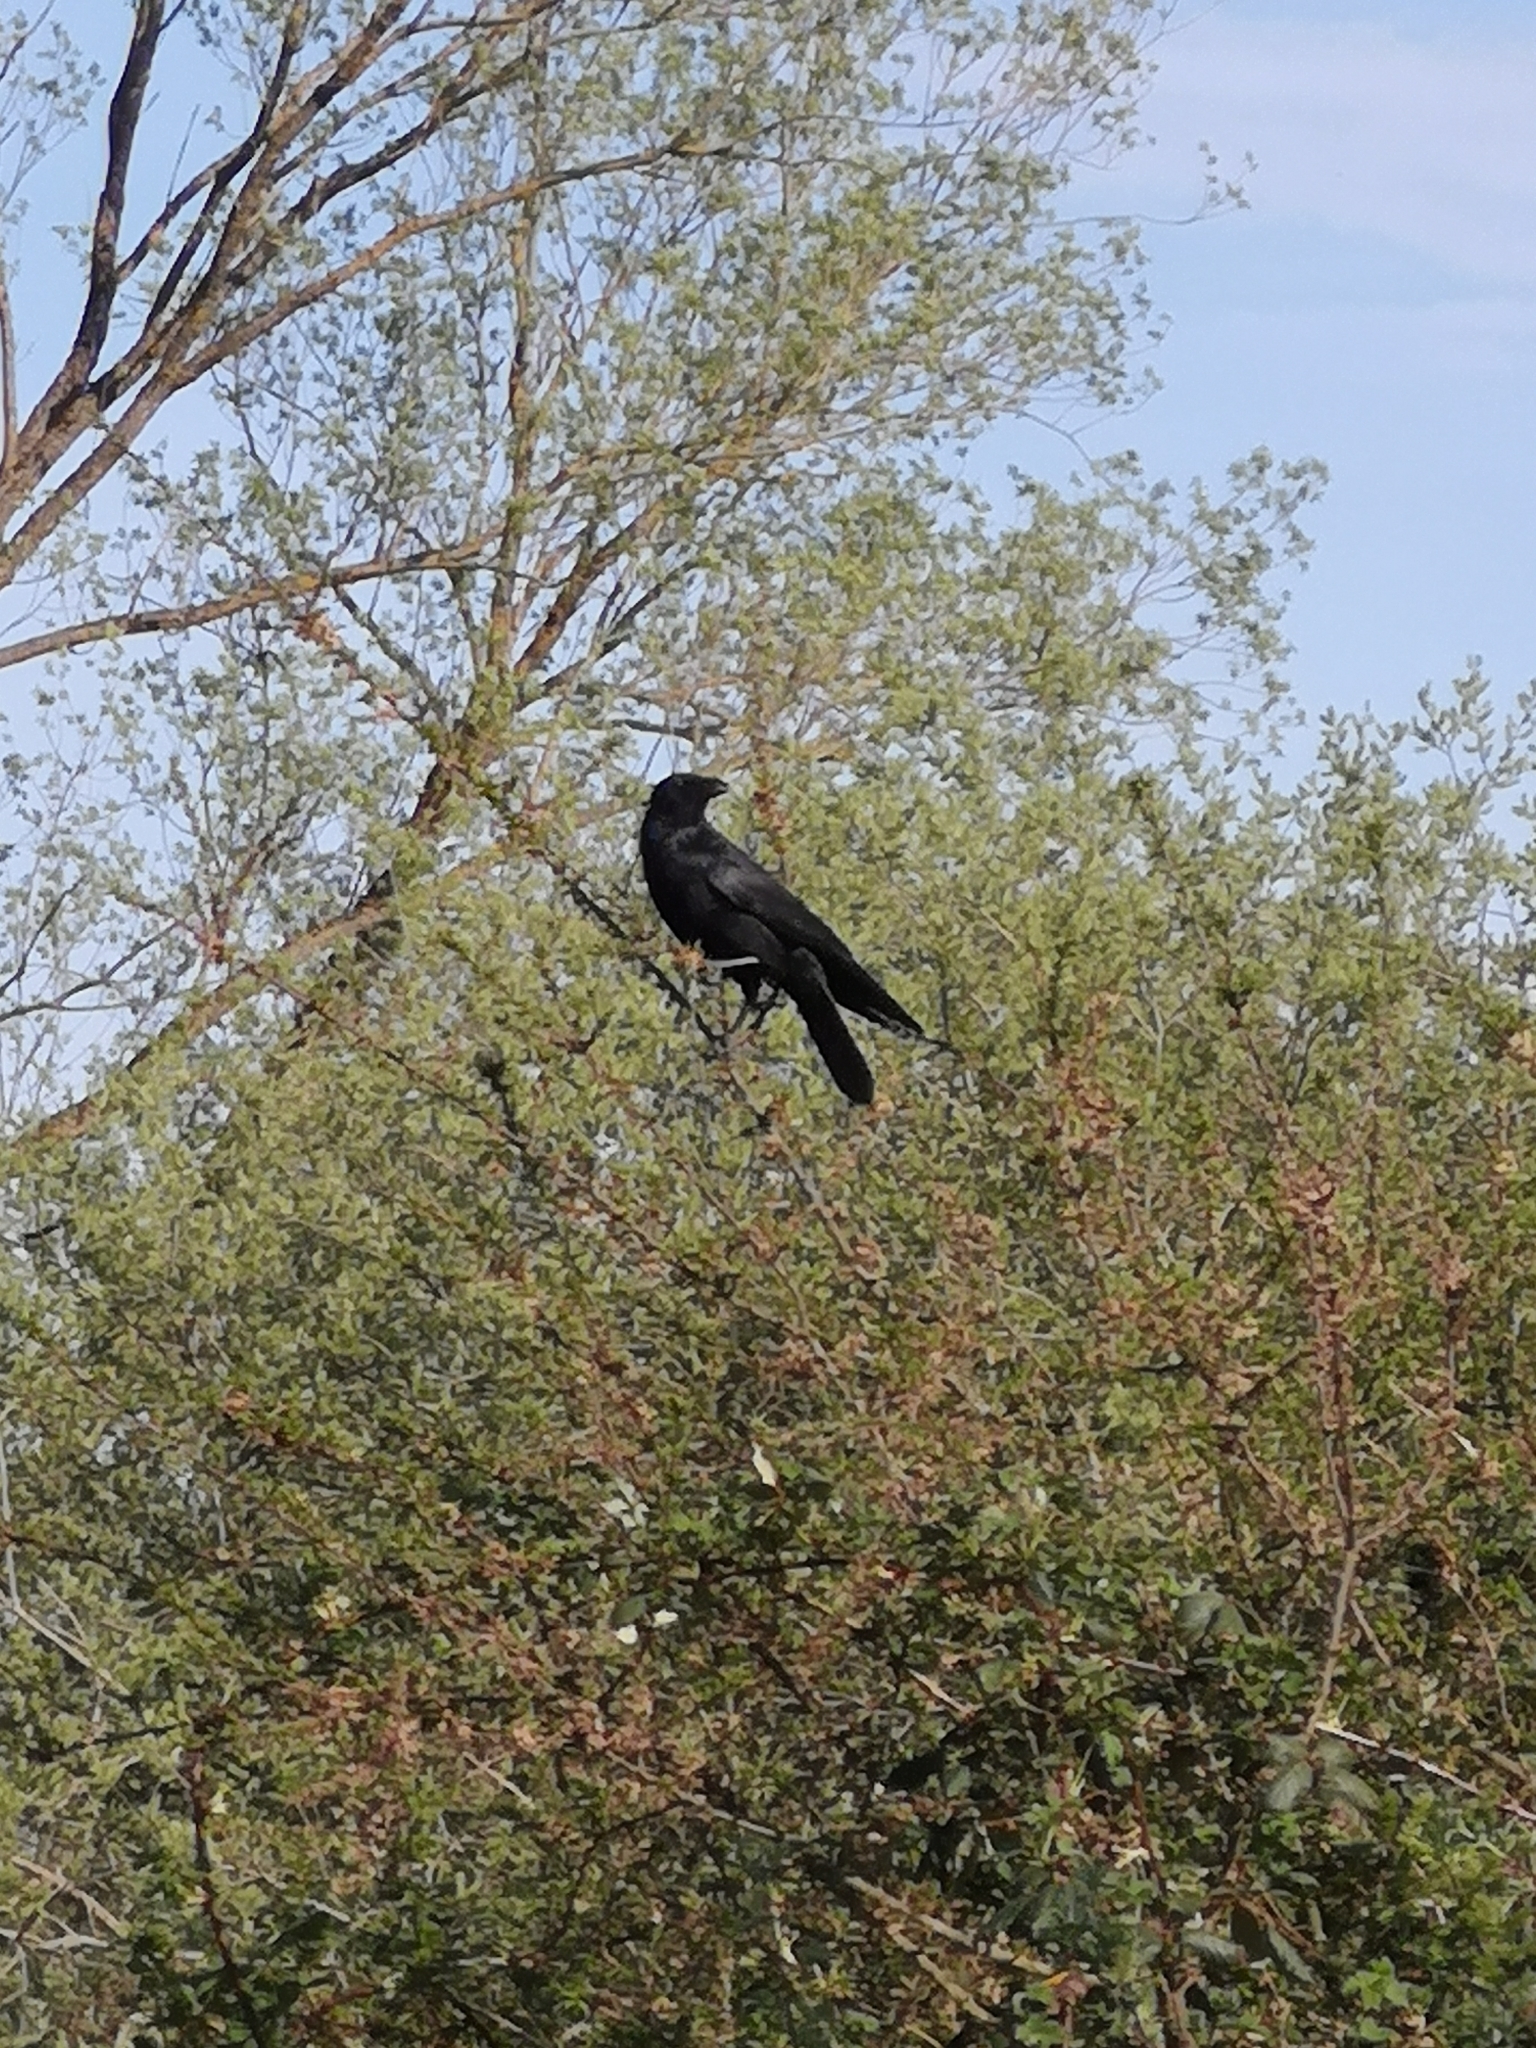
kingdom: Animalia
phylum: Chordata
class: Aves
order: Passeriformes
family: Corvidae
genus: Corvus
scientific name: Corvus corax
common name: Common raven
